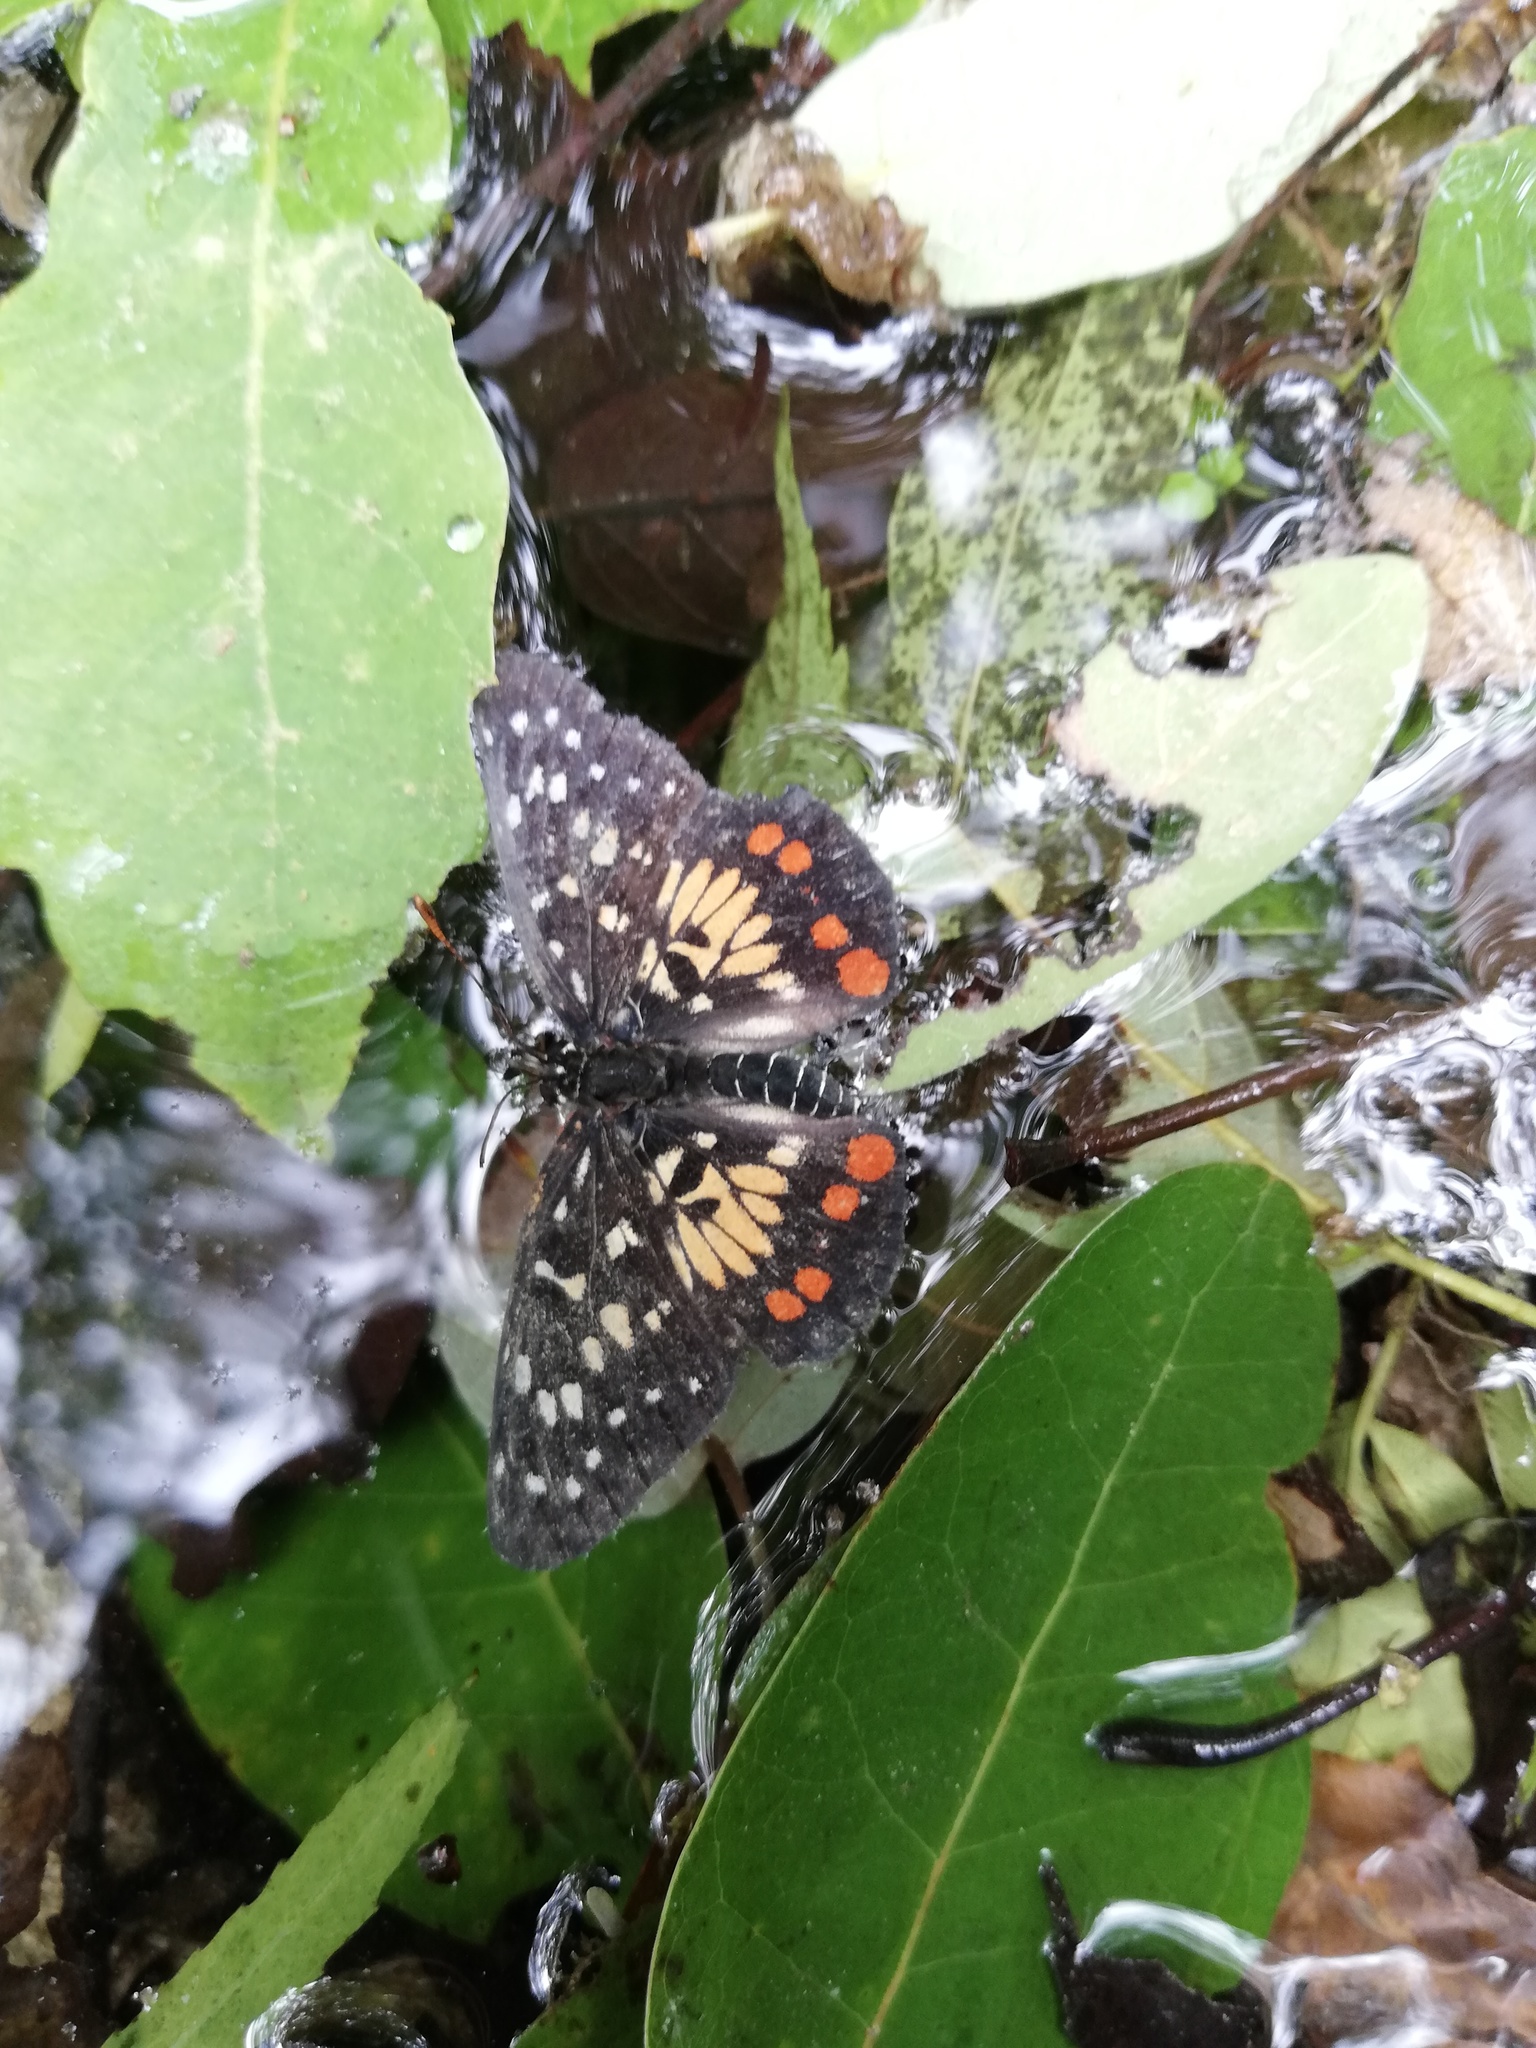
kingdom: Animalia
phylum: Arthropoda
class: Insecta
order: Lepidoptera
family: Nymphalidae
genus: Chlosyne
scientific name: Chlosyne marina
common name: Red-spotted patch
